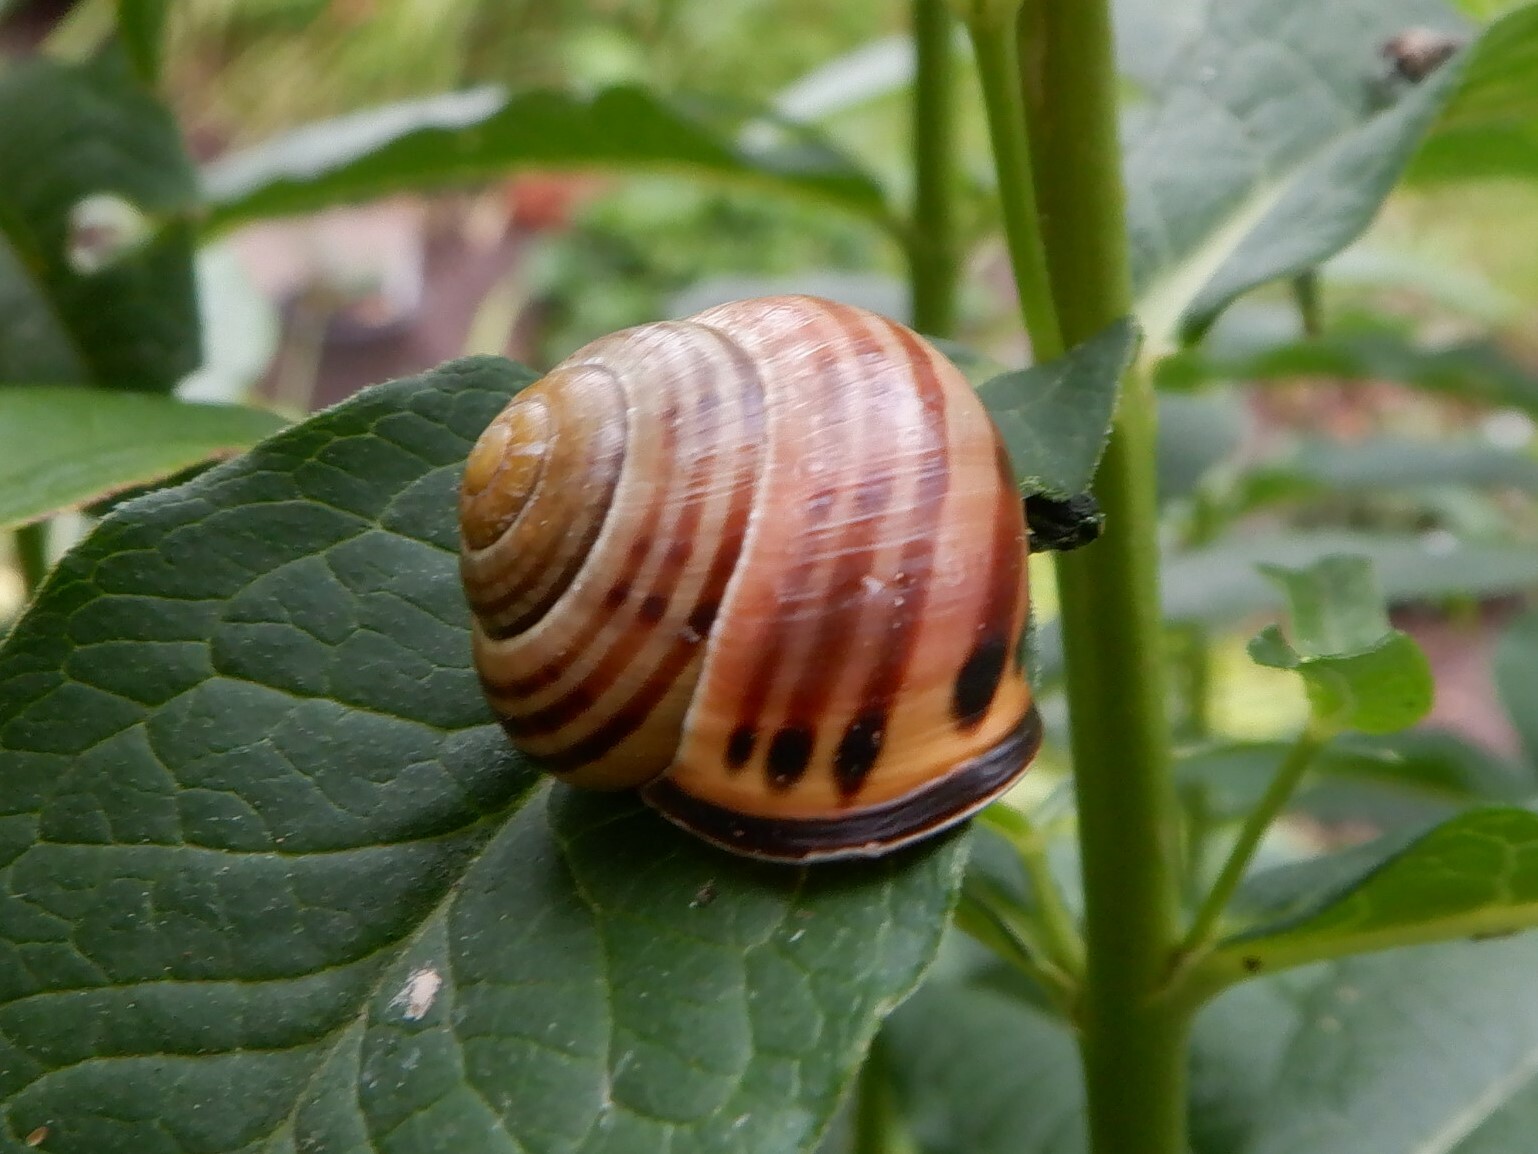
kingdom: Animalia
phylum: Mollusca
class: Gastropoda
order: Stylommatophora
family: Helicidae
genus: Cepaea
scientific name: Cepaea nemoralis
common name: Grovesnail
